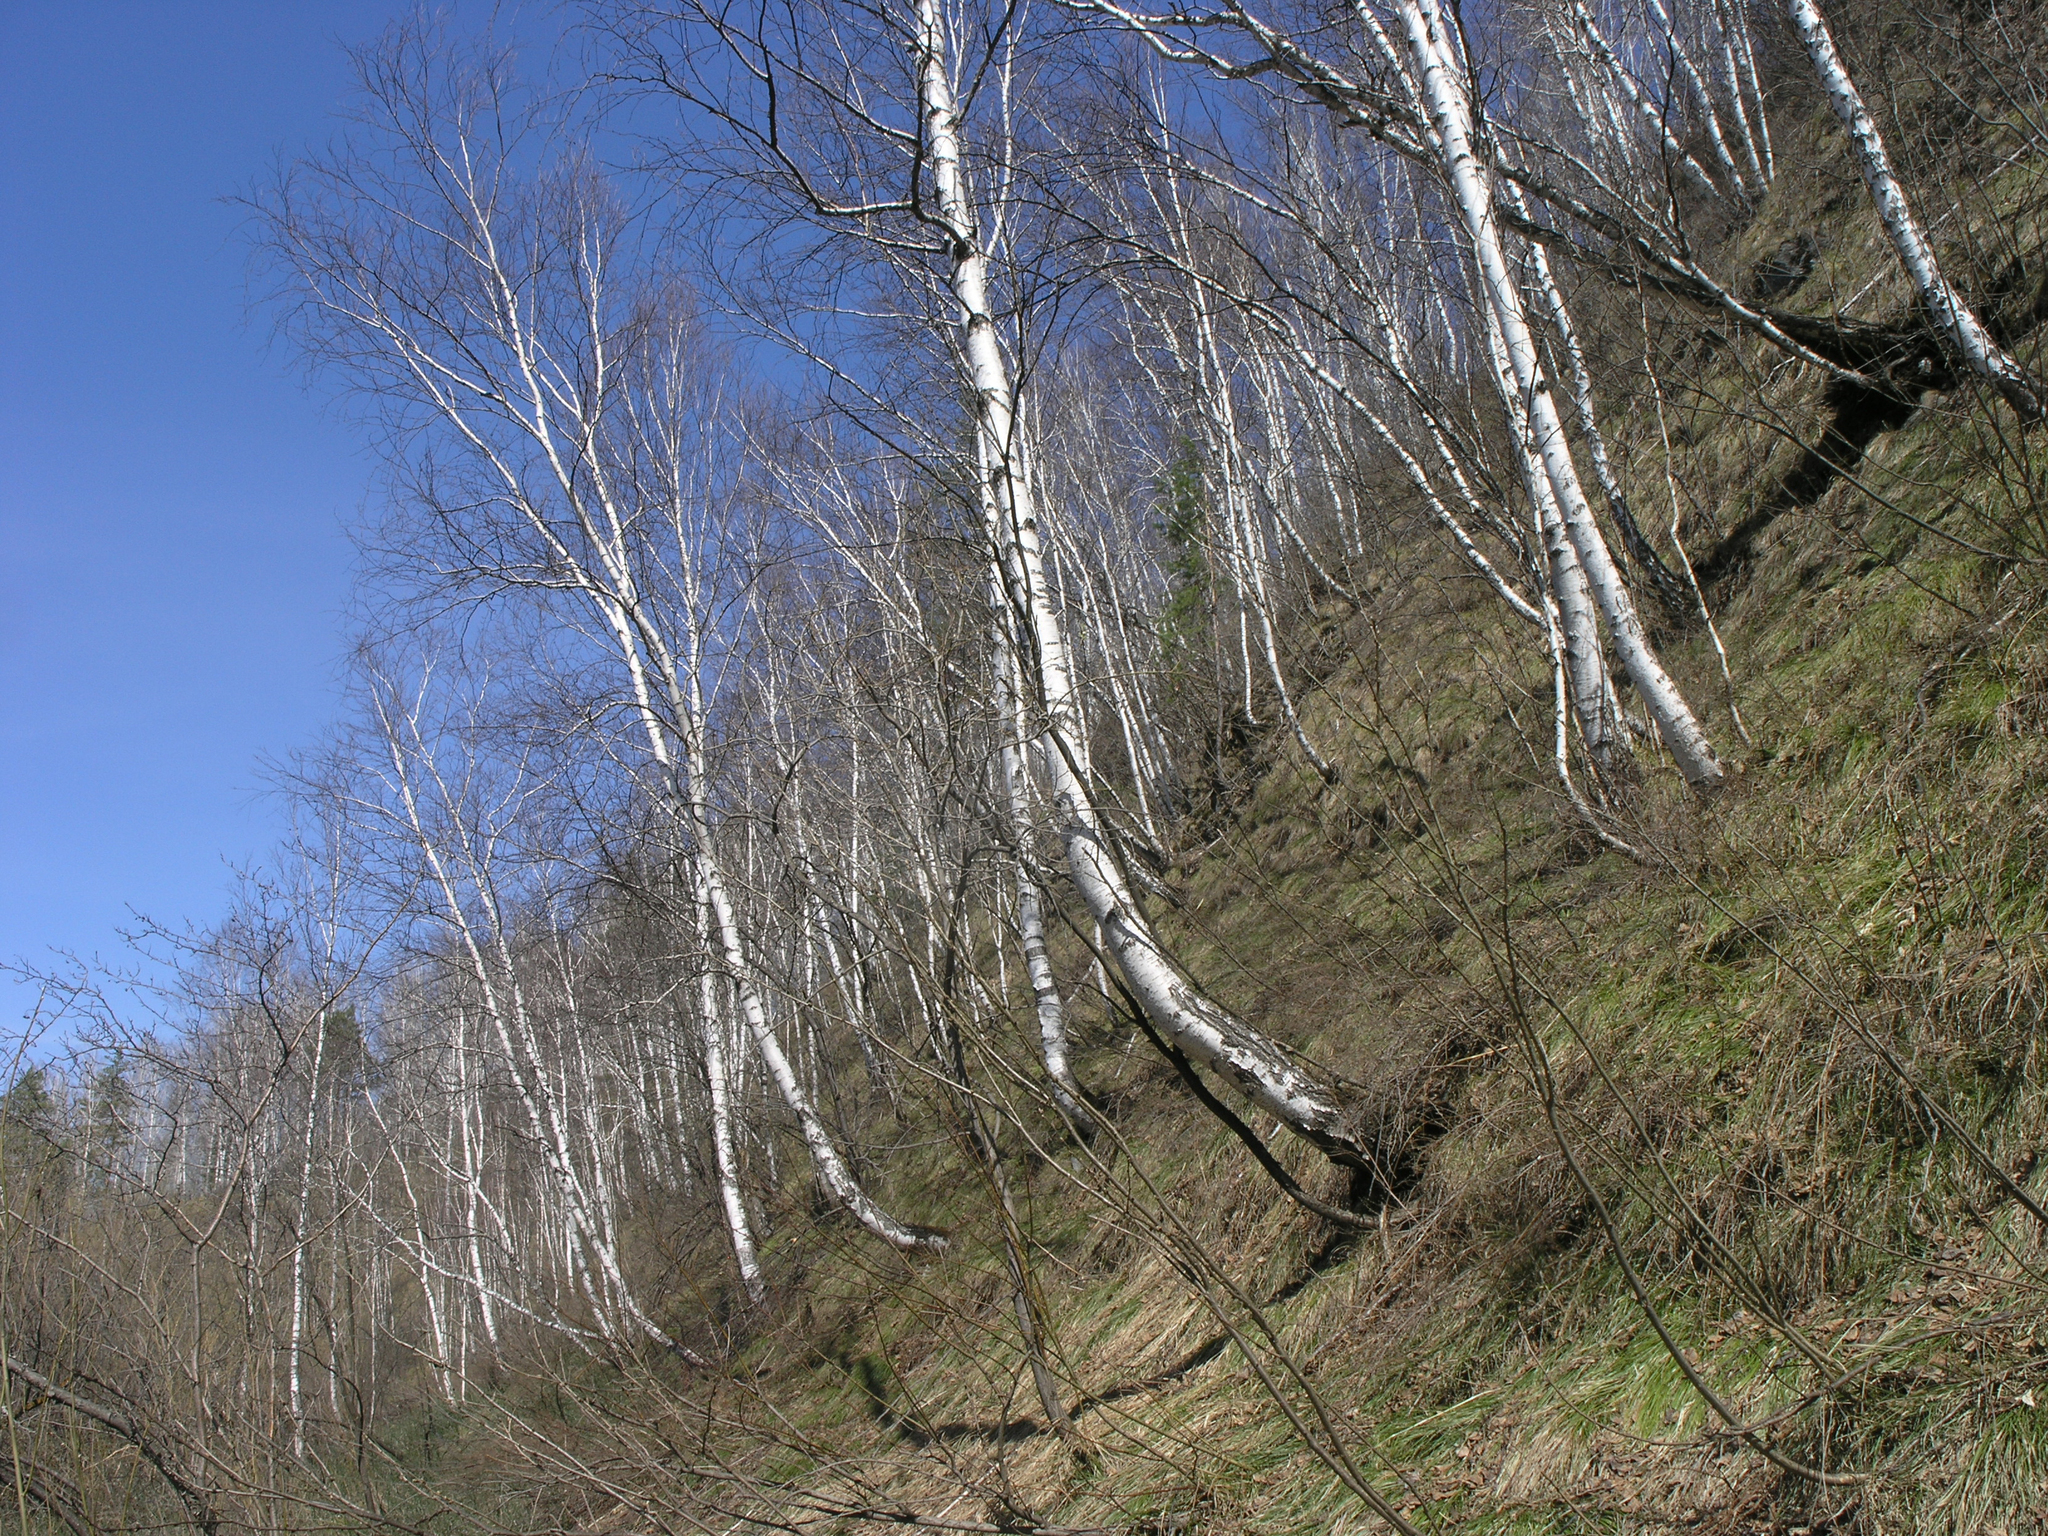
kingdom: Plantae
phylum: Tracheophyta
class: Magnoliopsida
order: Fagales
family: Betulaceae
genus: Betula
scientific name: Betula pendula
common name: Silver birch
